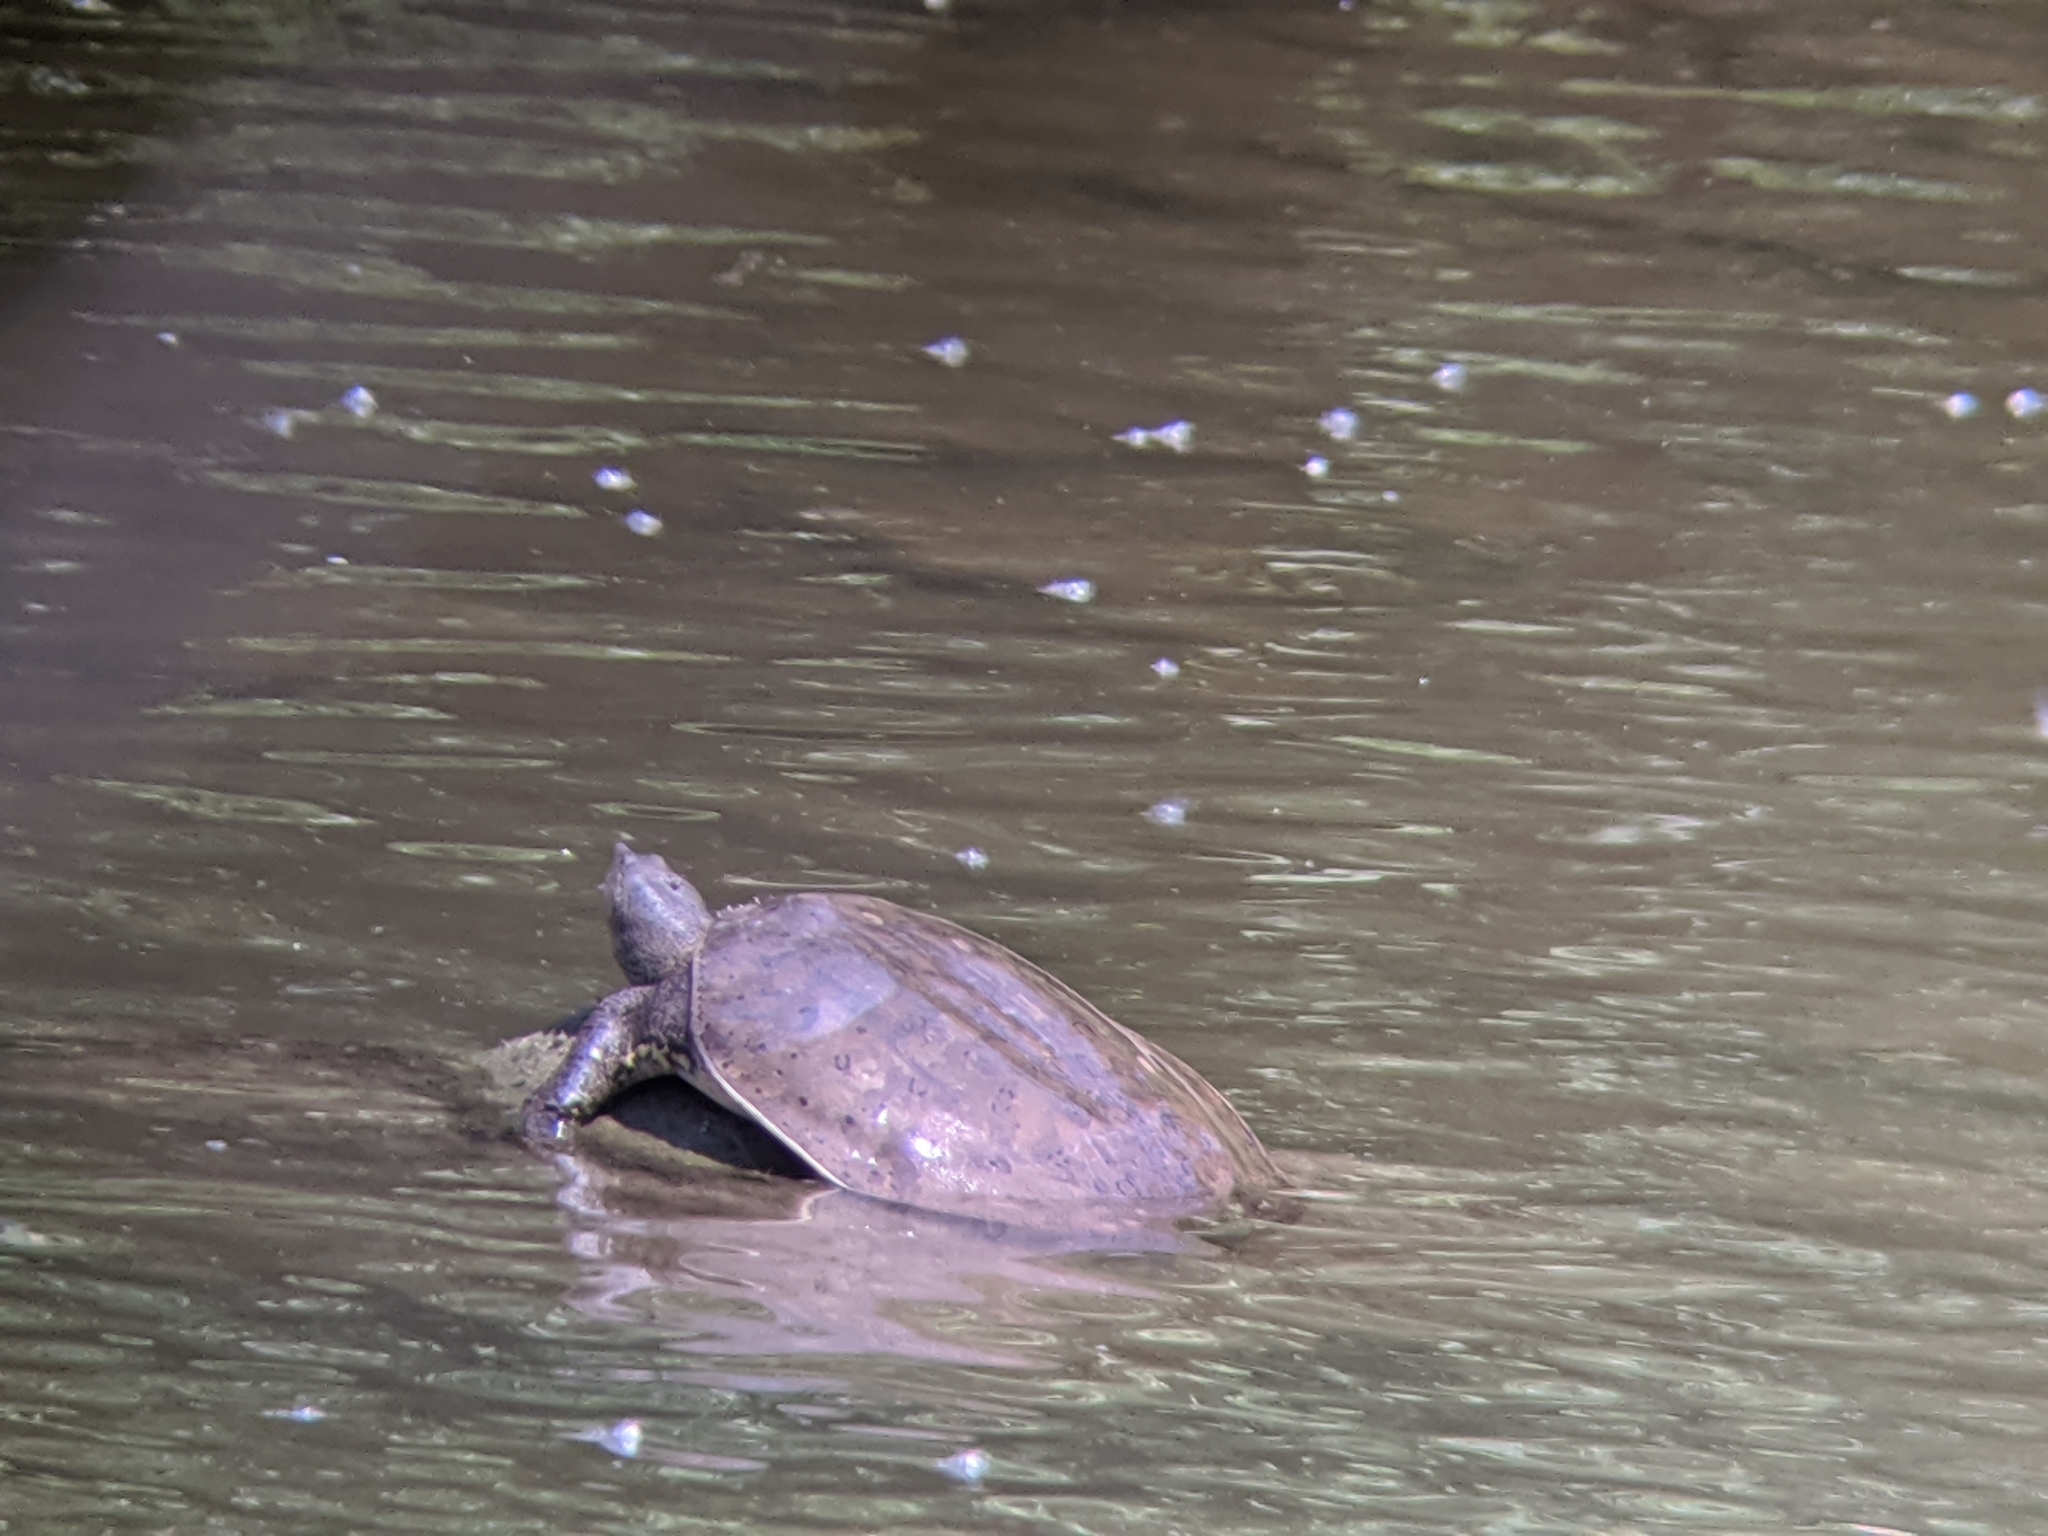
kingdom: Animalia
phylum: Chordata
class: Testudines
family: Trionychidae
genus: Apalone
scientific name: Apalone spinifera
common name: Spiny softshell turtle
